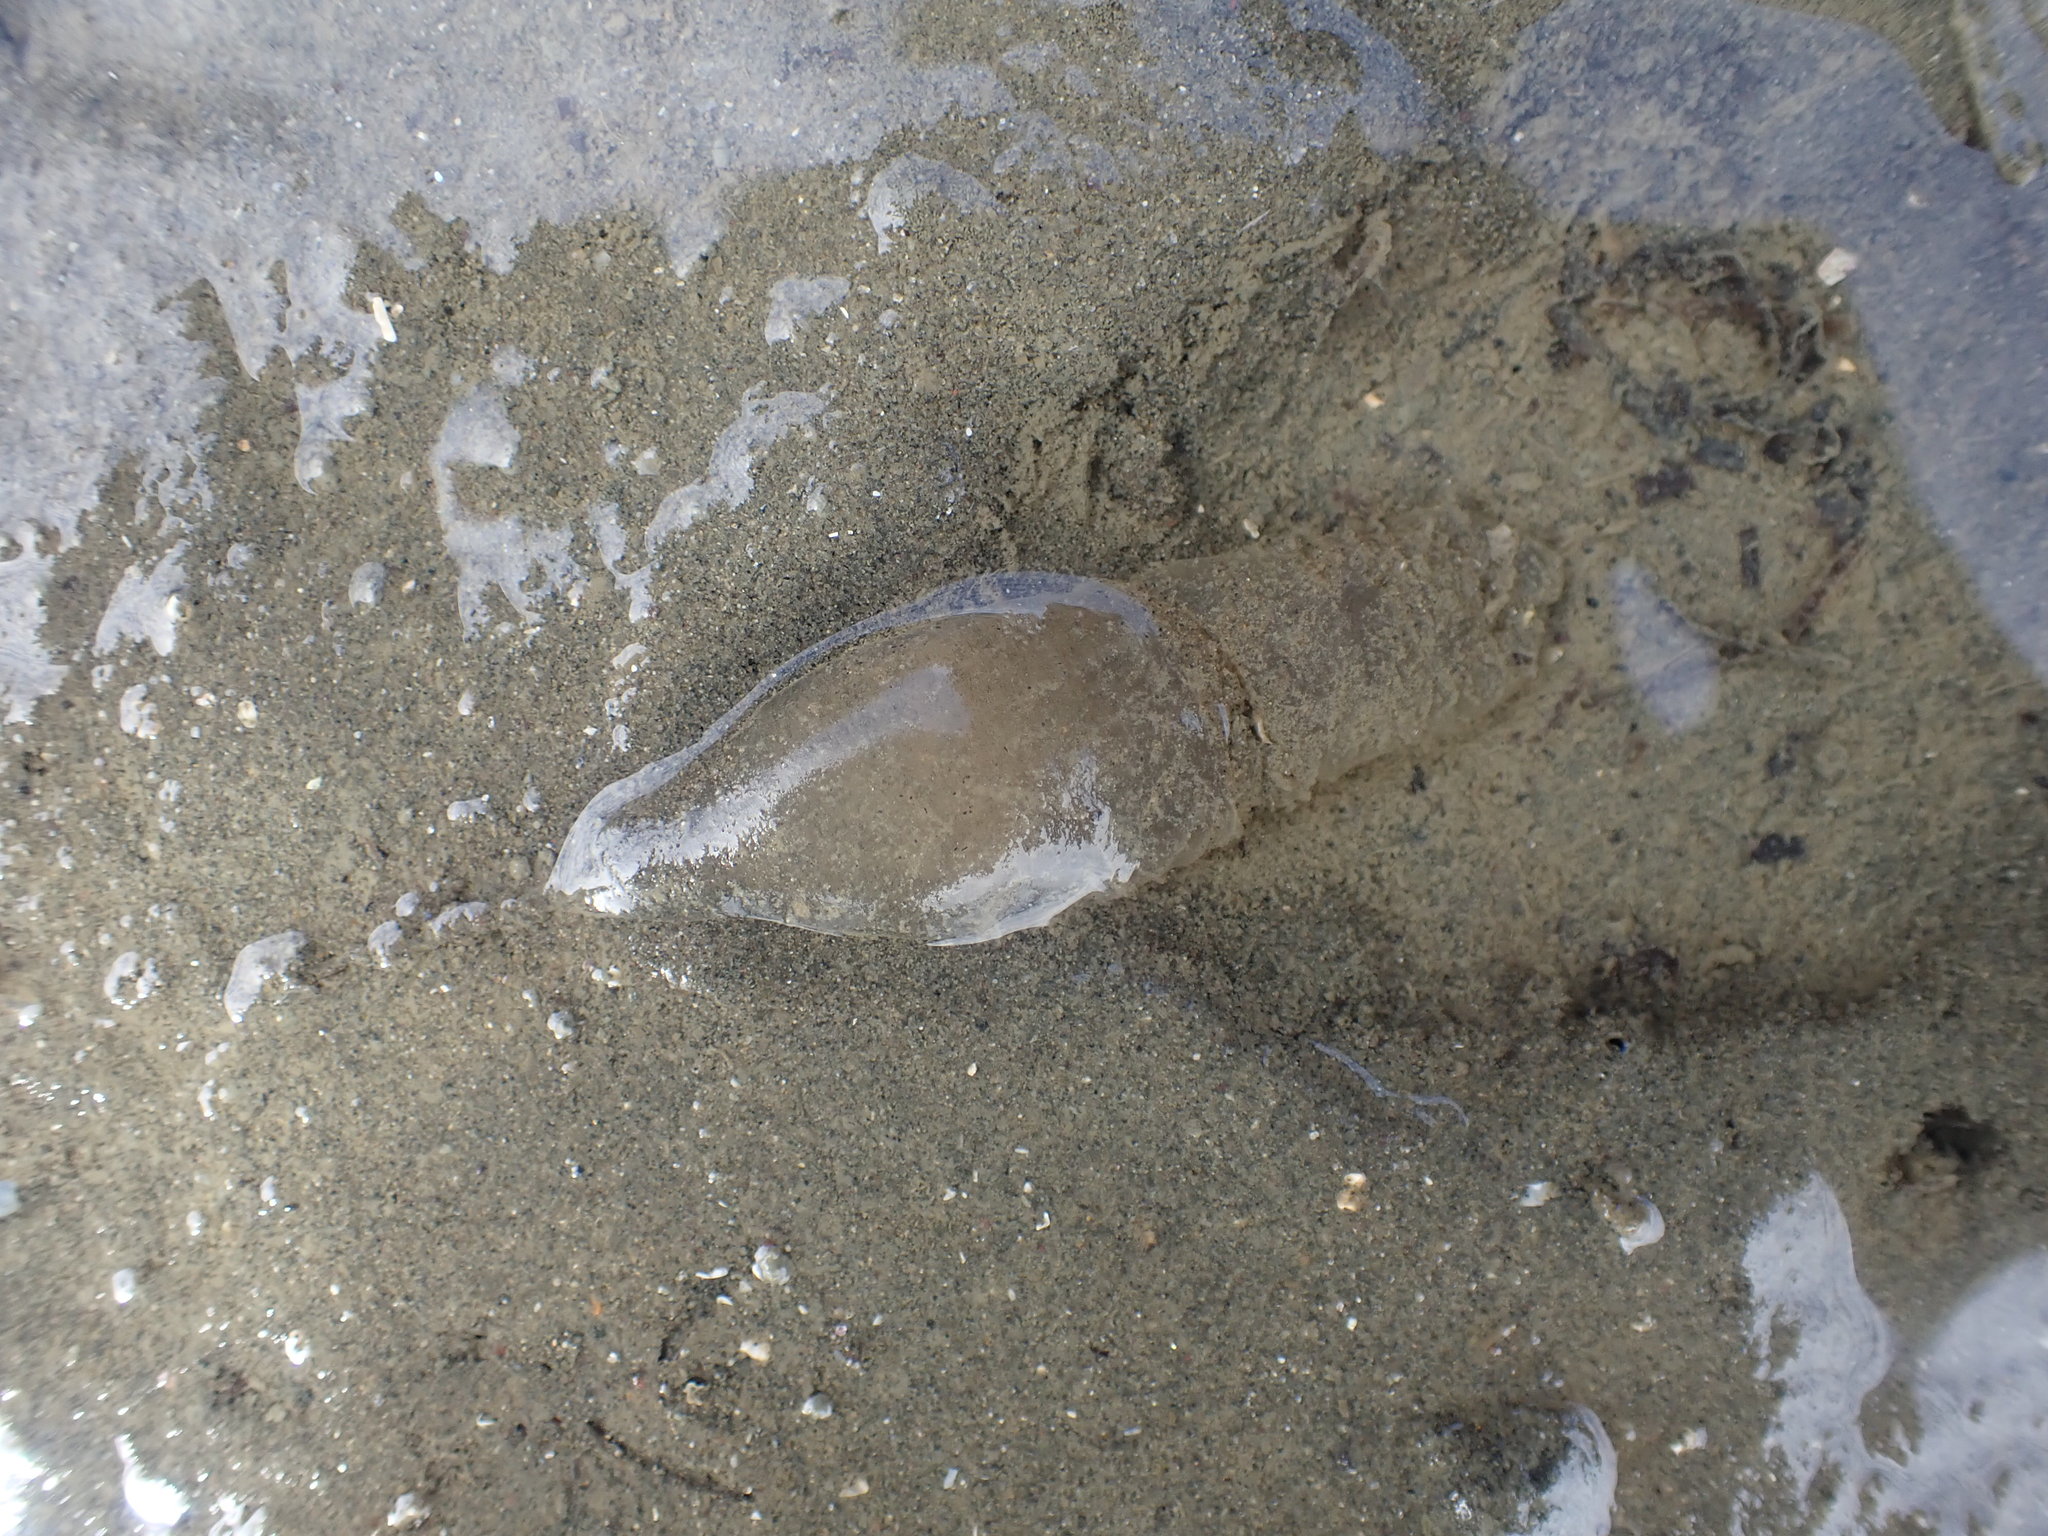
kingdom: Animalia
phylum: Mollusca
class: Gastropoda
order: Cephalaspidea
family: Philinidae
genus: Philine
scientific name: Philine
